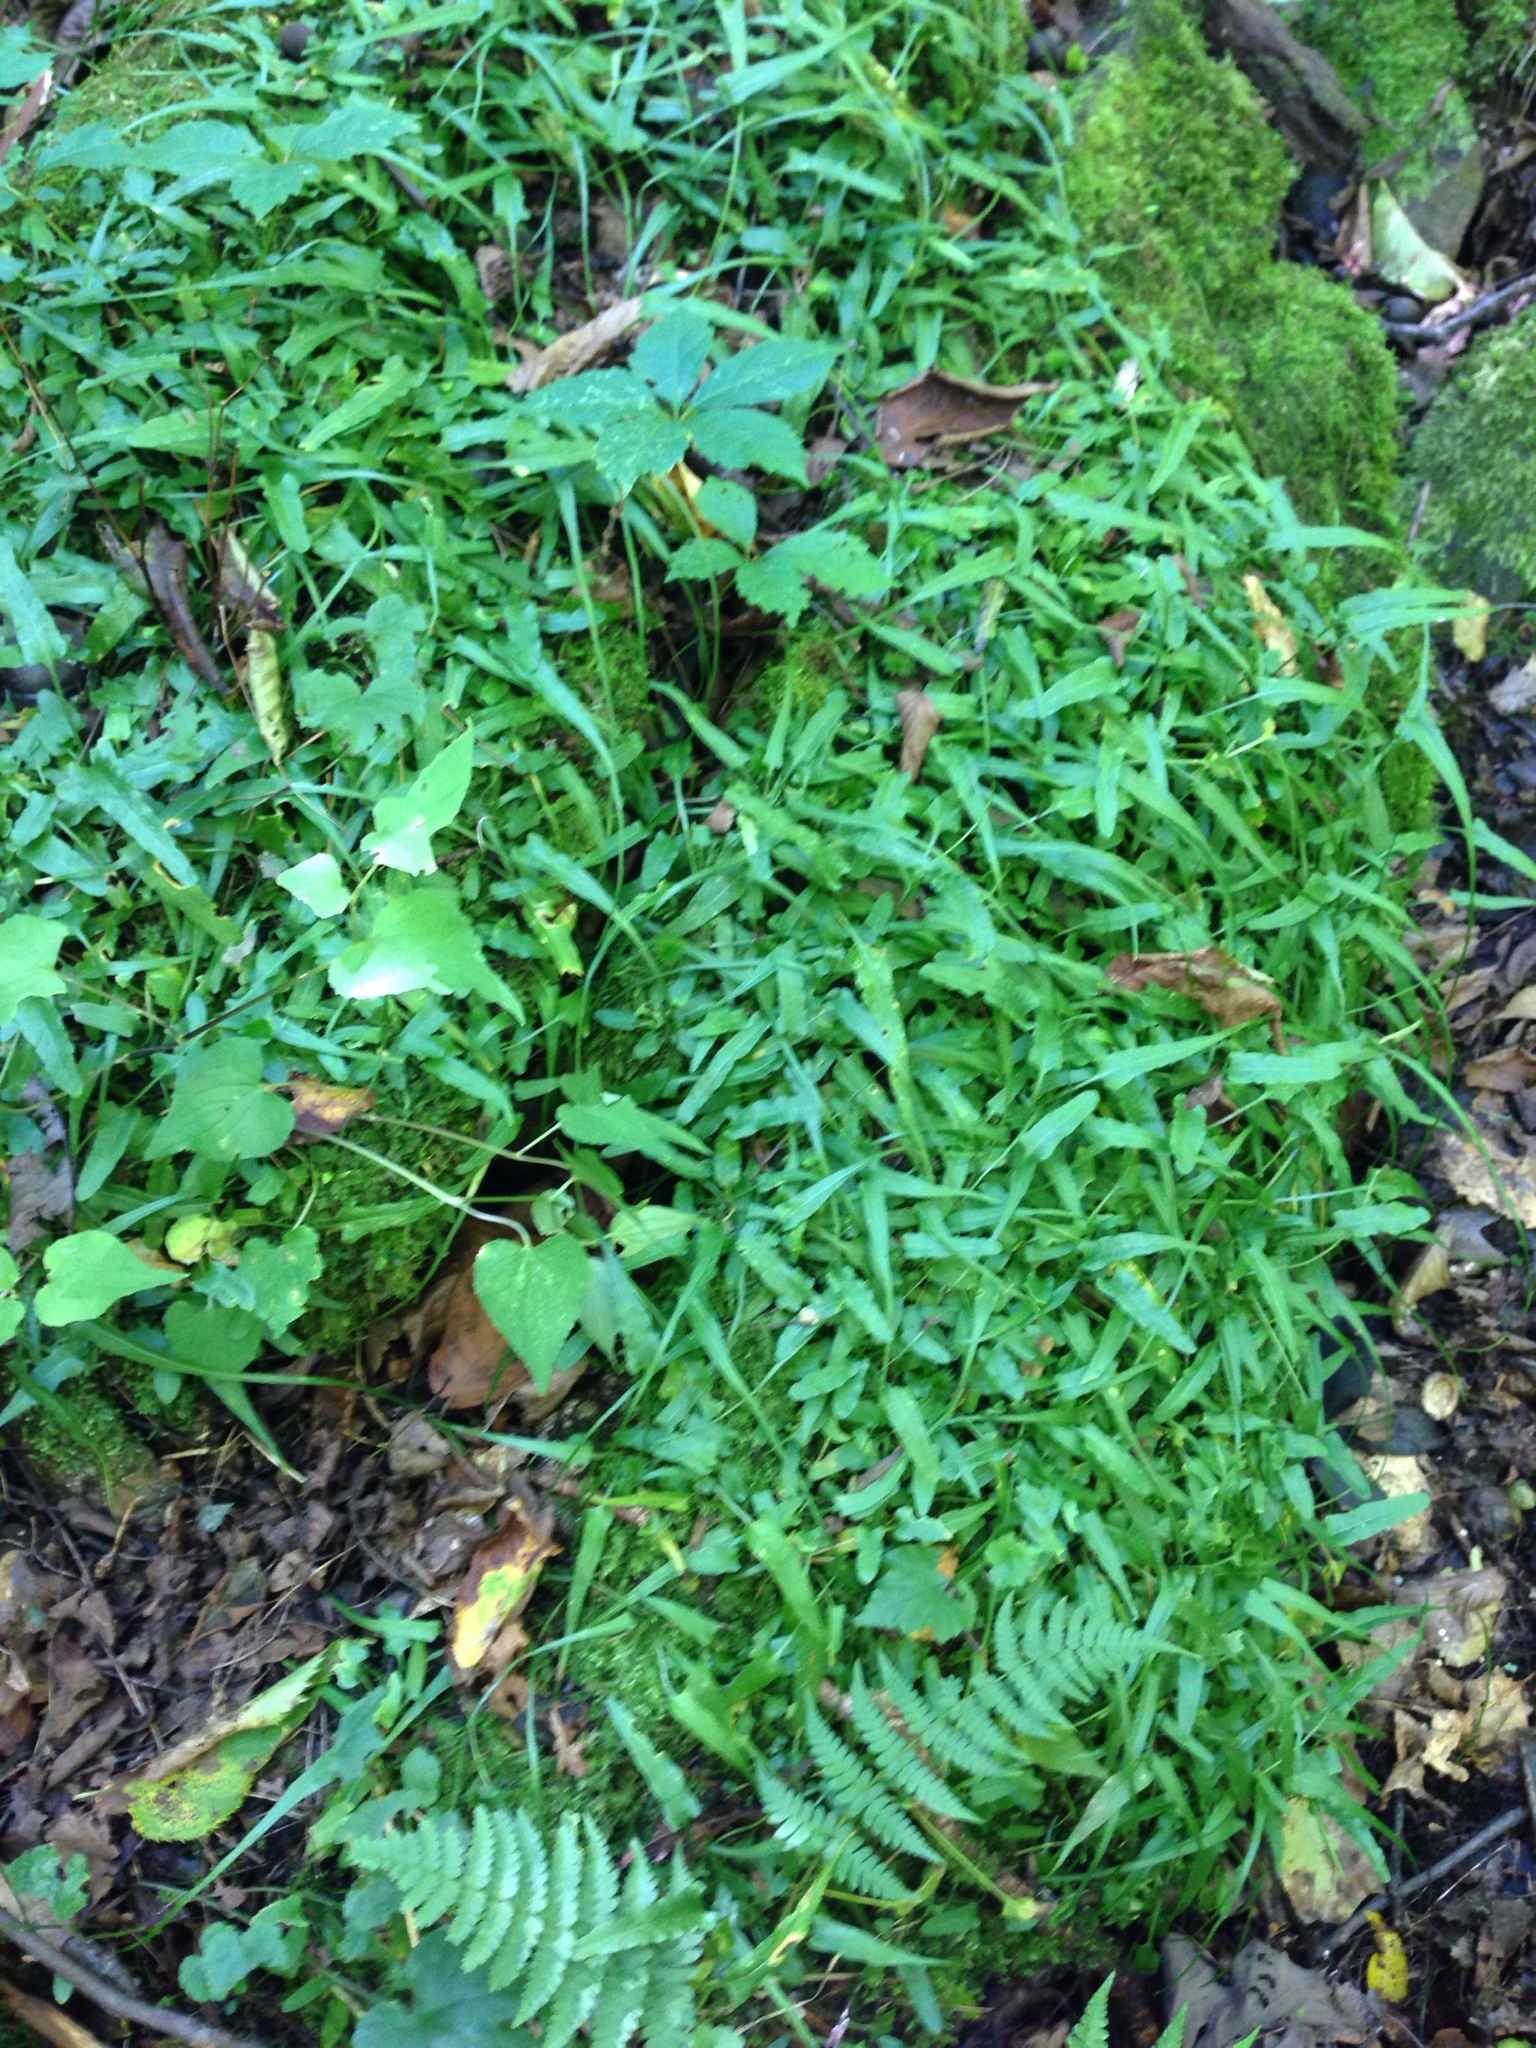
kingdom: Plantae
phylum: Tracheophyta
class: Polypodiopsida
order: Polypodiales
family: Aspleniaceae
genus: Asplenium
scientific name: Asplenium rhizophyllum
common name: Walking fern
